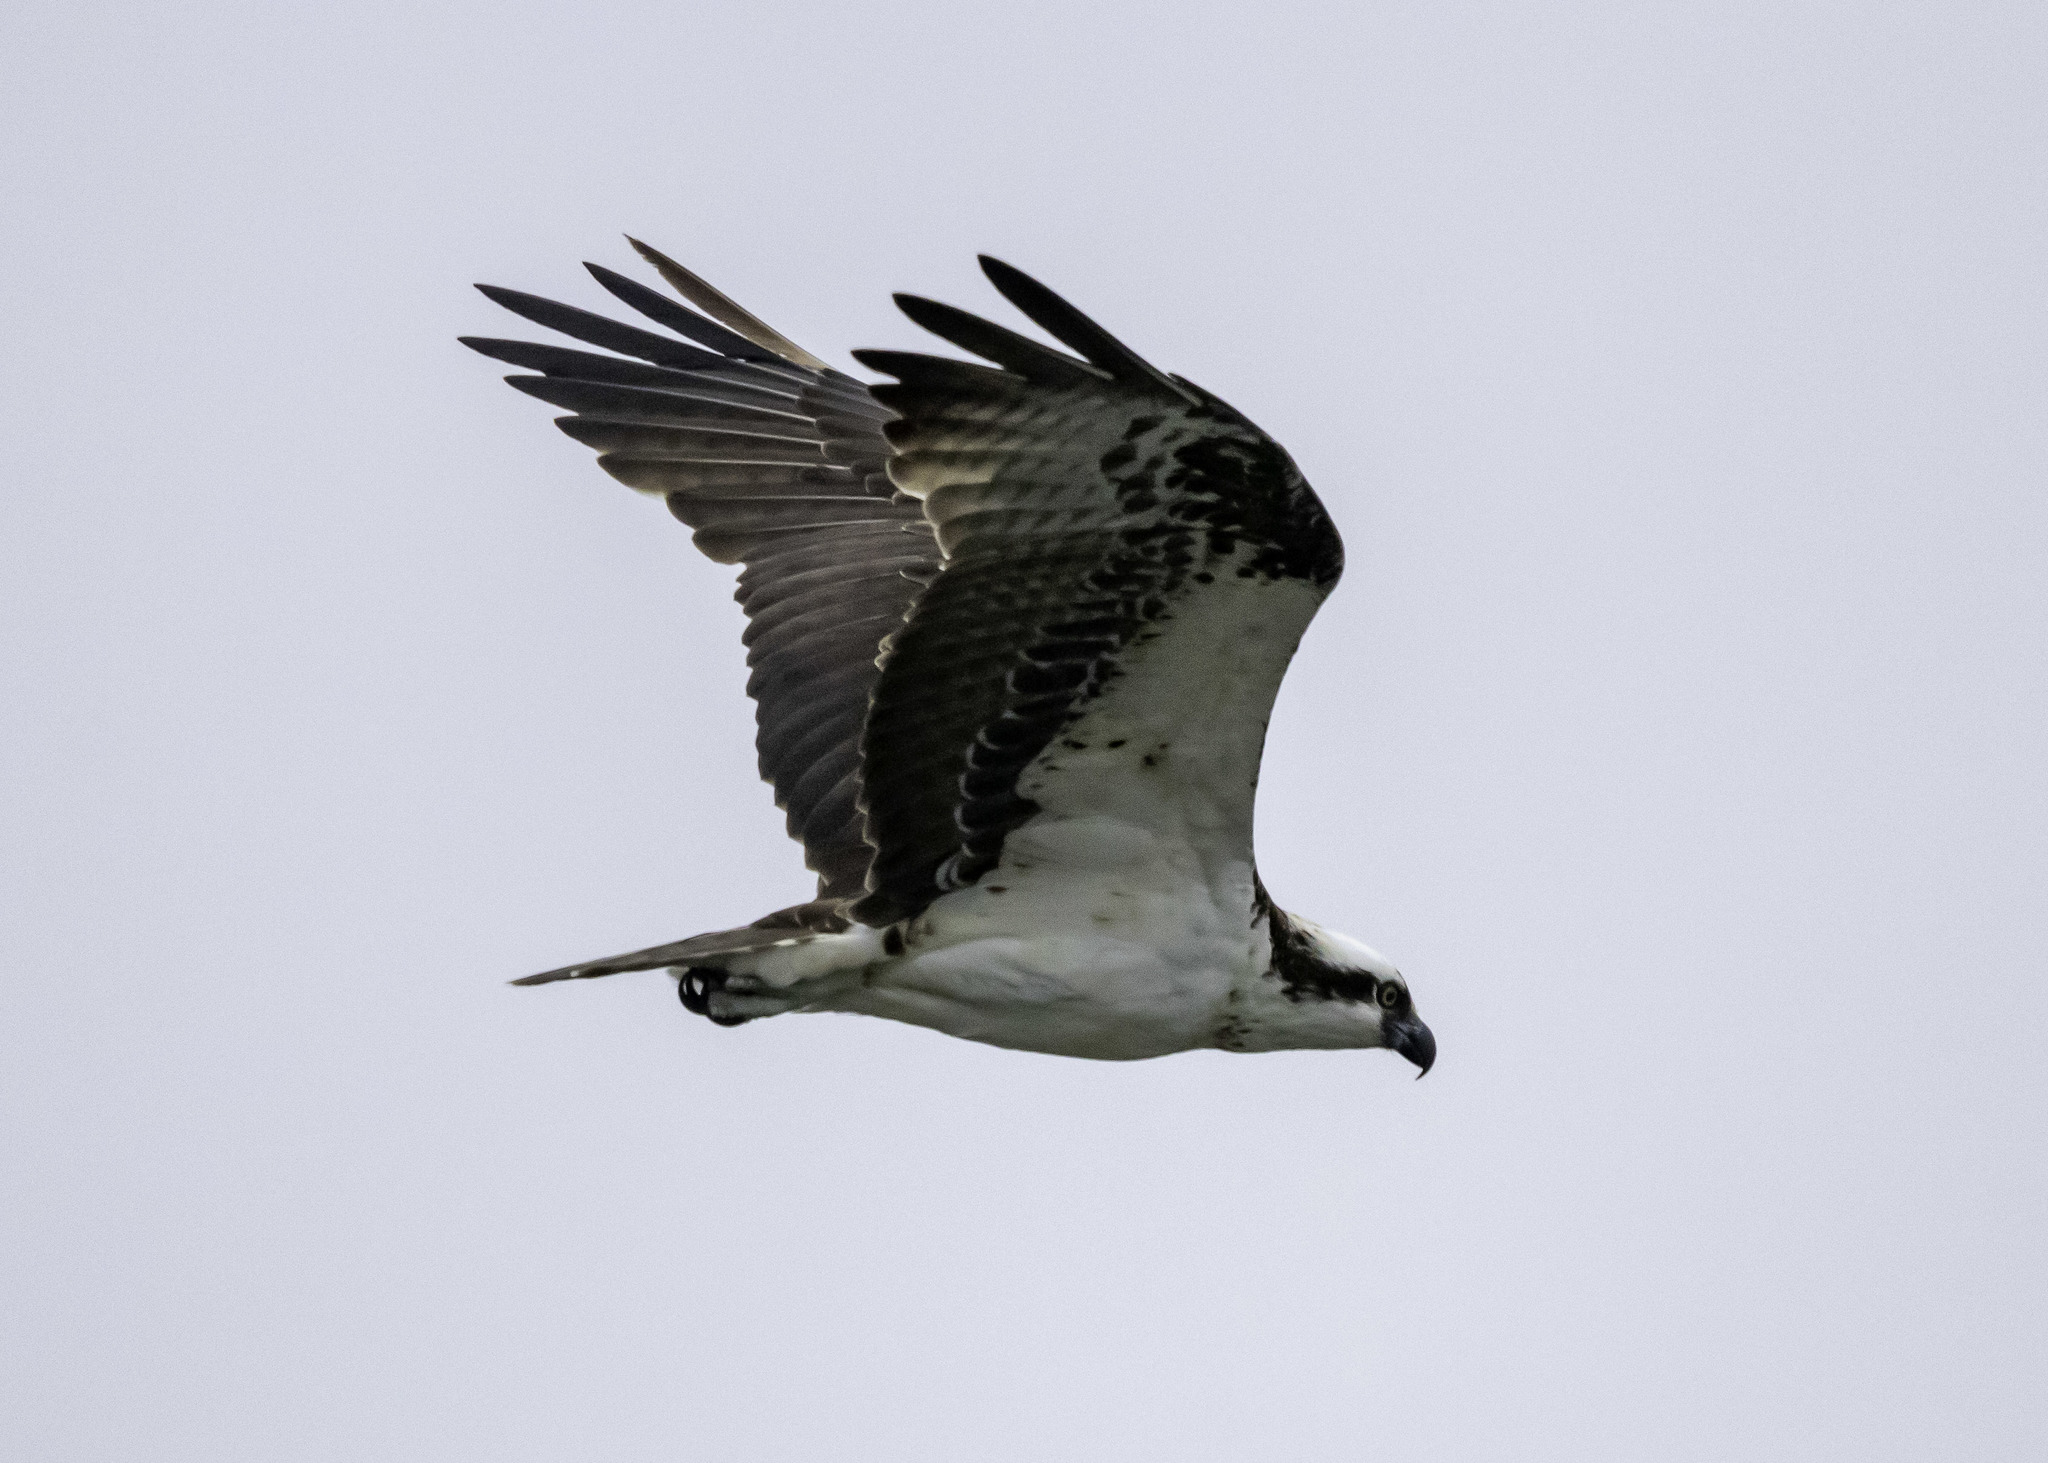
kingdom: Animalia
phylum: Chordata
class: Aves
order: Accipitriformes
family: Pandionidae
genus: Pandion
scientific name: Pandion haliaetus
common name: Osprey
